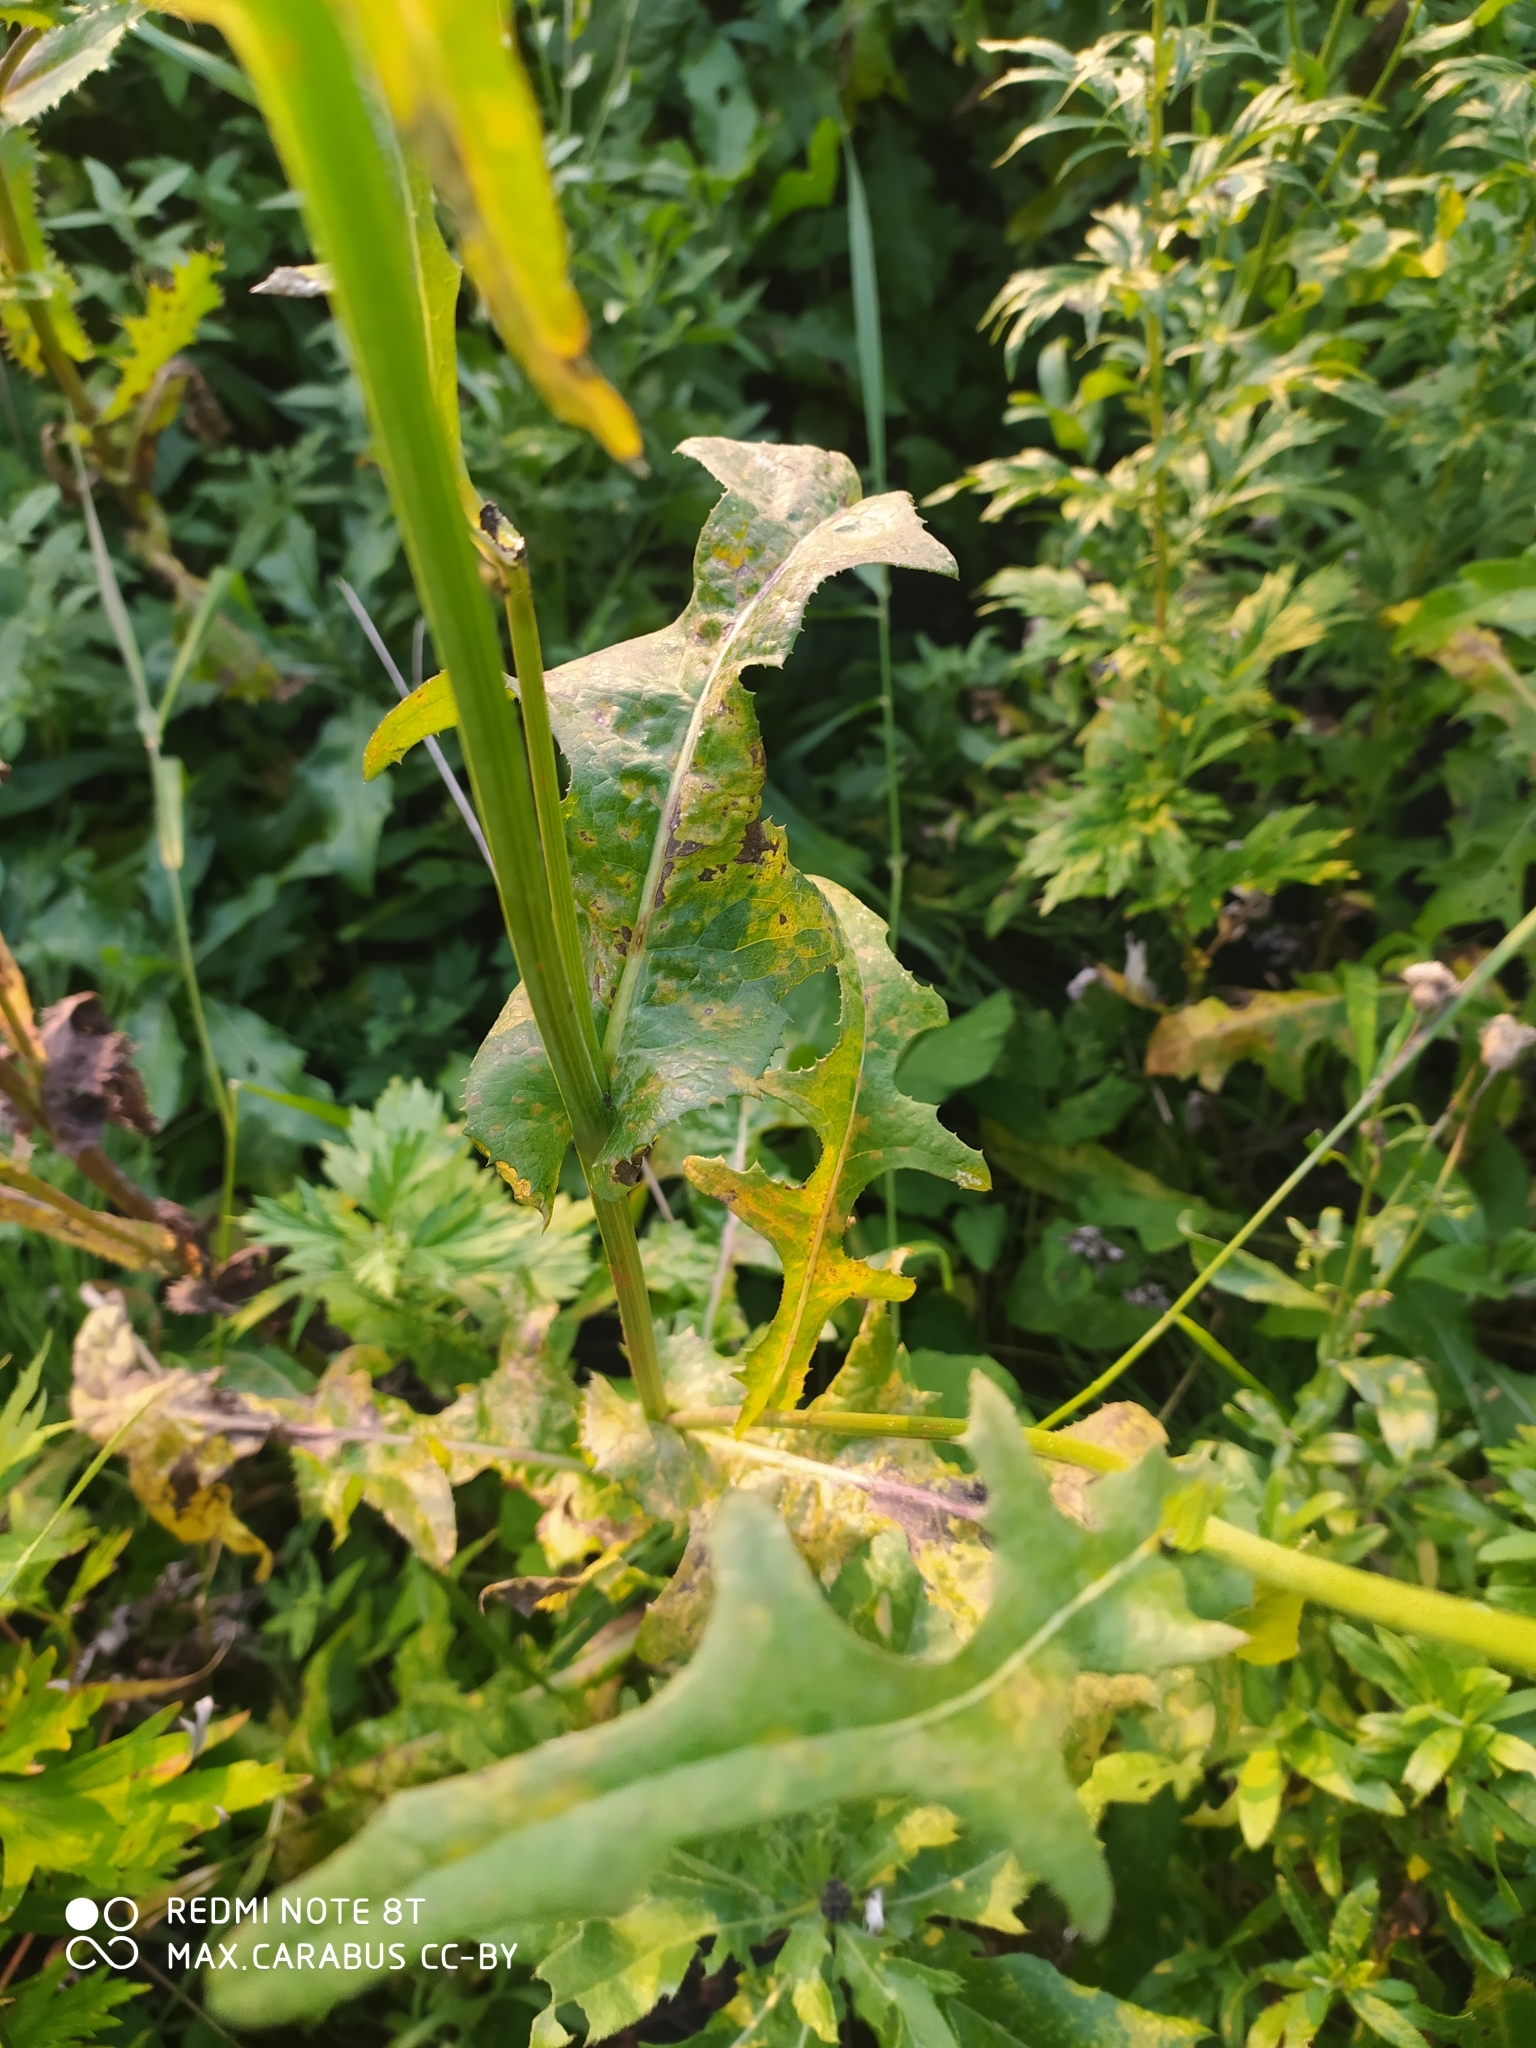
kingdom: Plantae
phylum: Tracheophyta
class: Magnoliopsida
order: Asterales
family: Asteraceae
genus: Sonchus
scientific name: Sonchus arvensis
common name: Perennial sow-thistle
